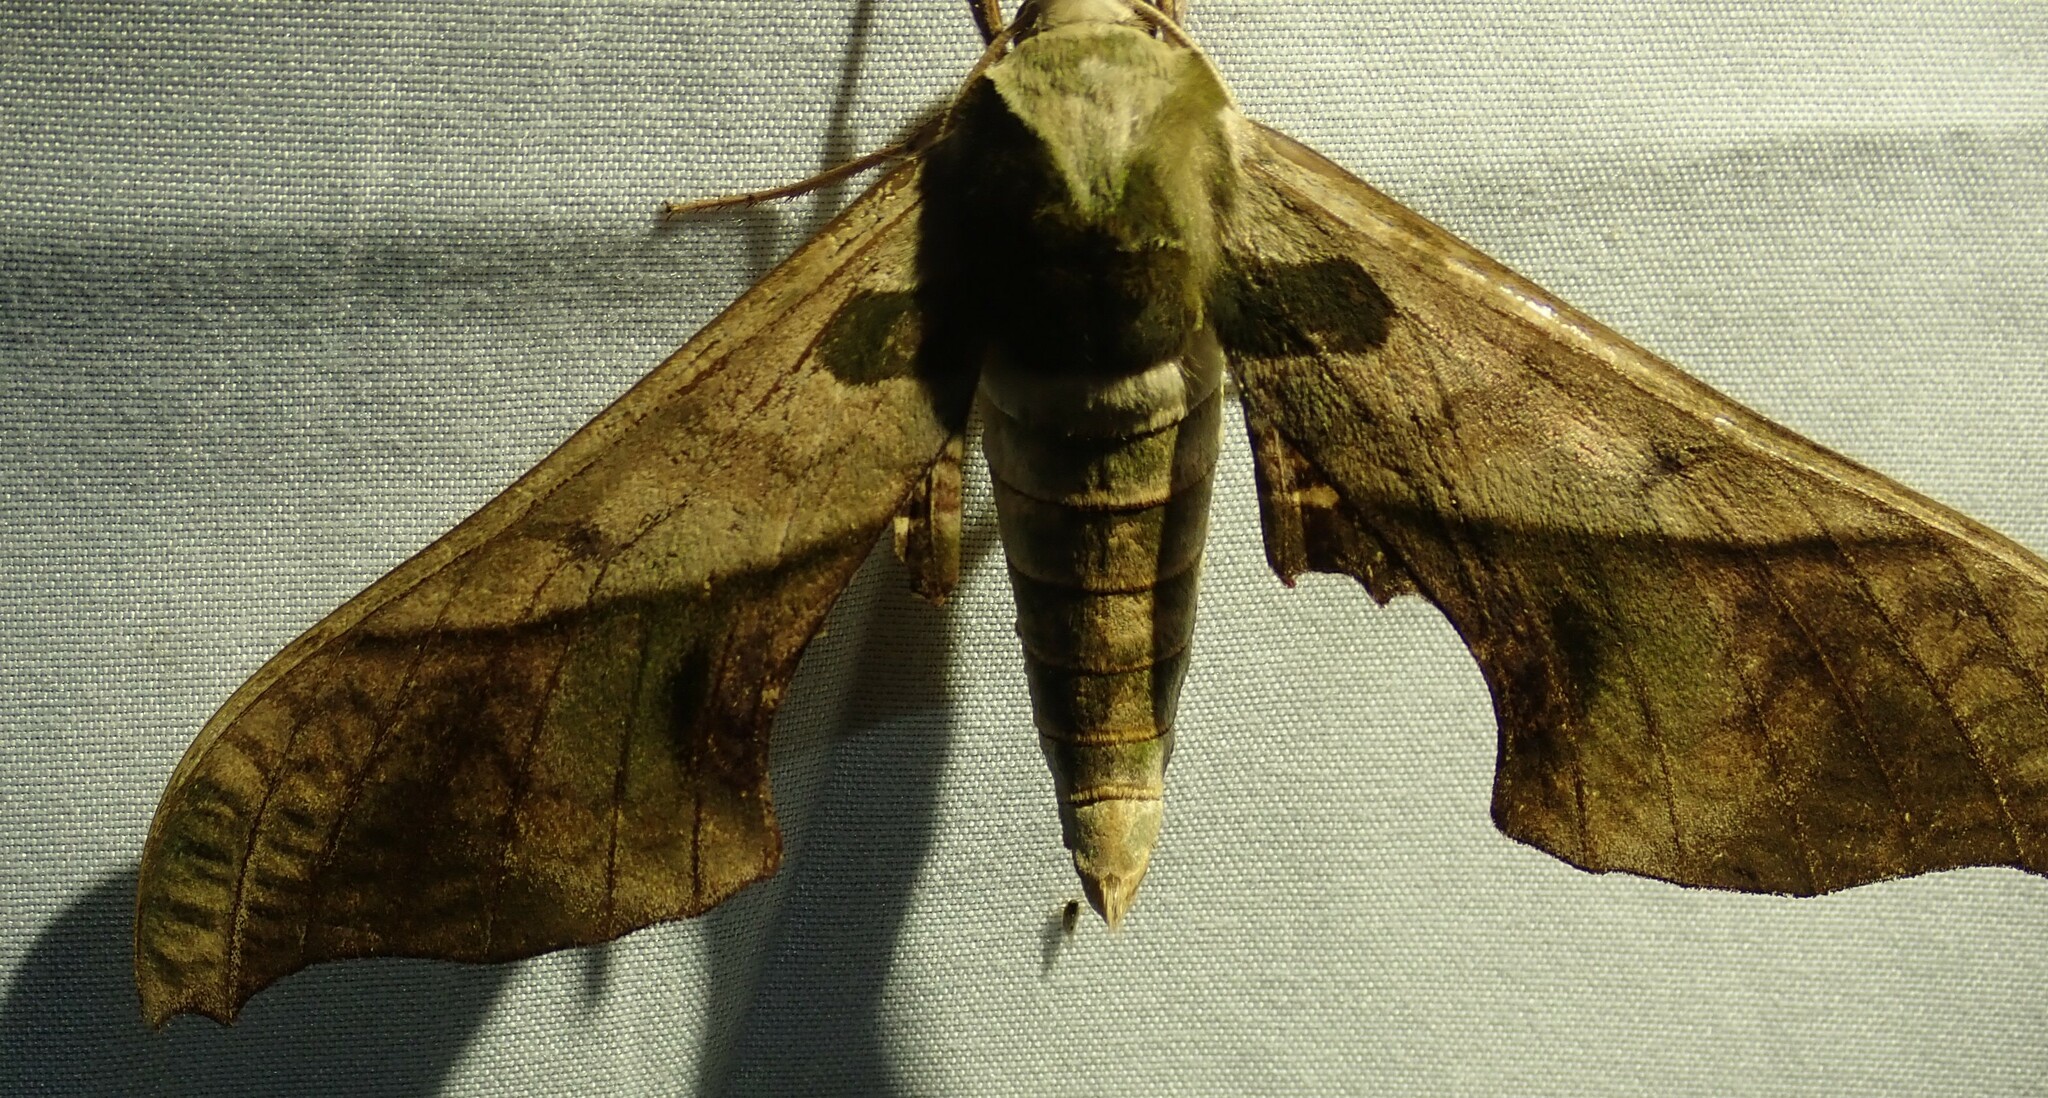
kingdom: Animalia
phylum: Arthropoda
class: Insecta
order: Lepidoptera
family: Sphingidae
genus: Adhemarius
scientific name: Adhemarius dariensis
